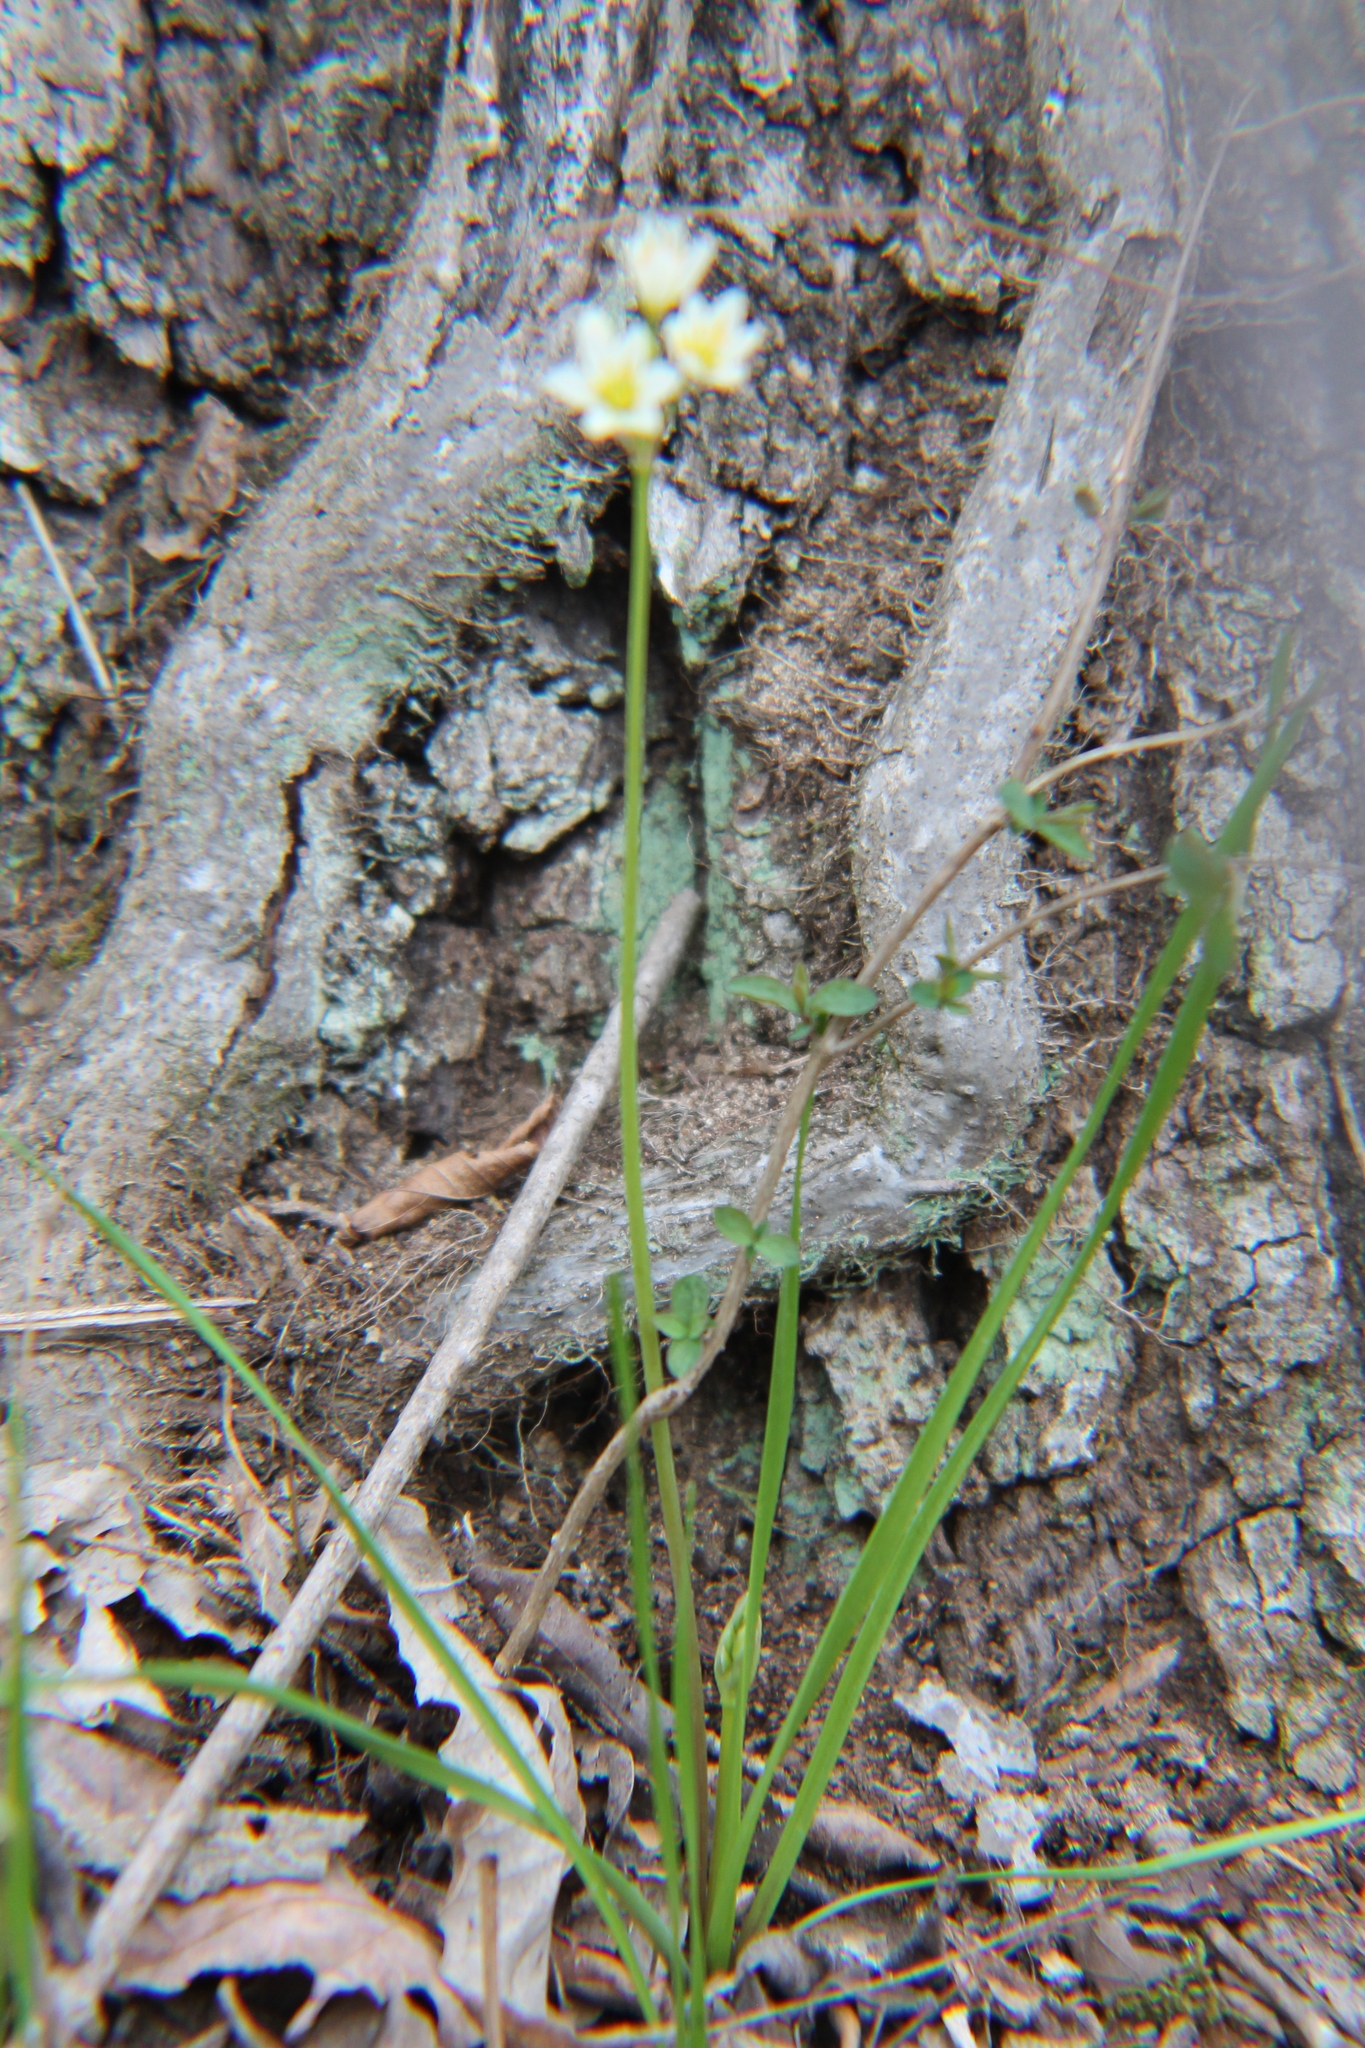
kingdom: Plantae
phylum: Tracheophyta
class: Liliopsida
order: Asparagales
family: Amaryllidaceae
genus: Nothoscordum
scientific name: Nothoscordum bivalve
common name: Crow-poison
